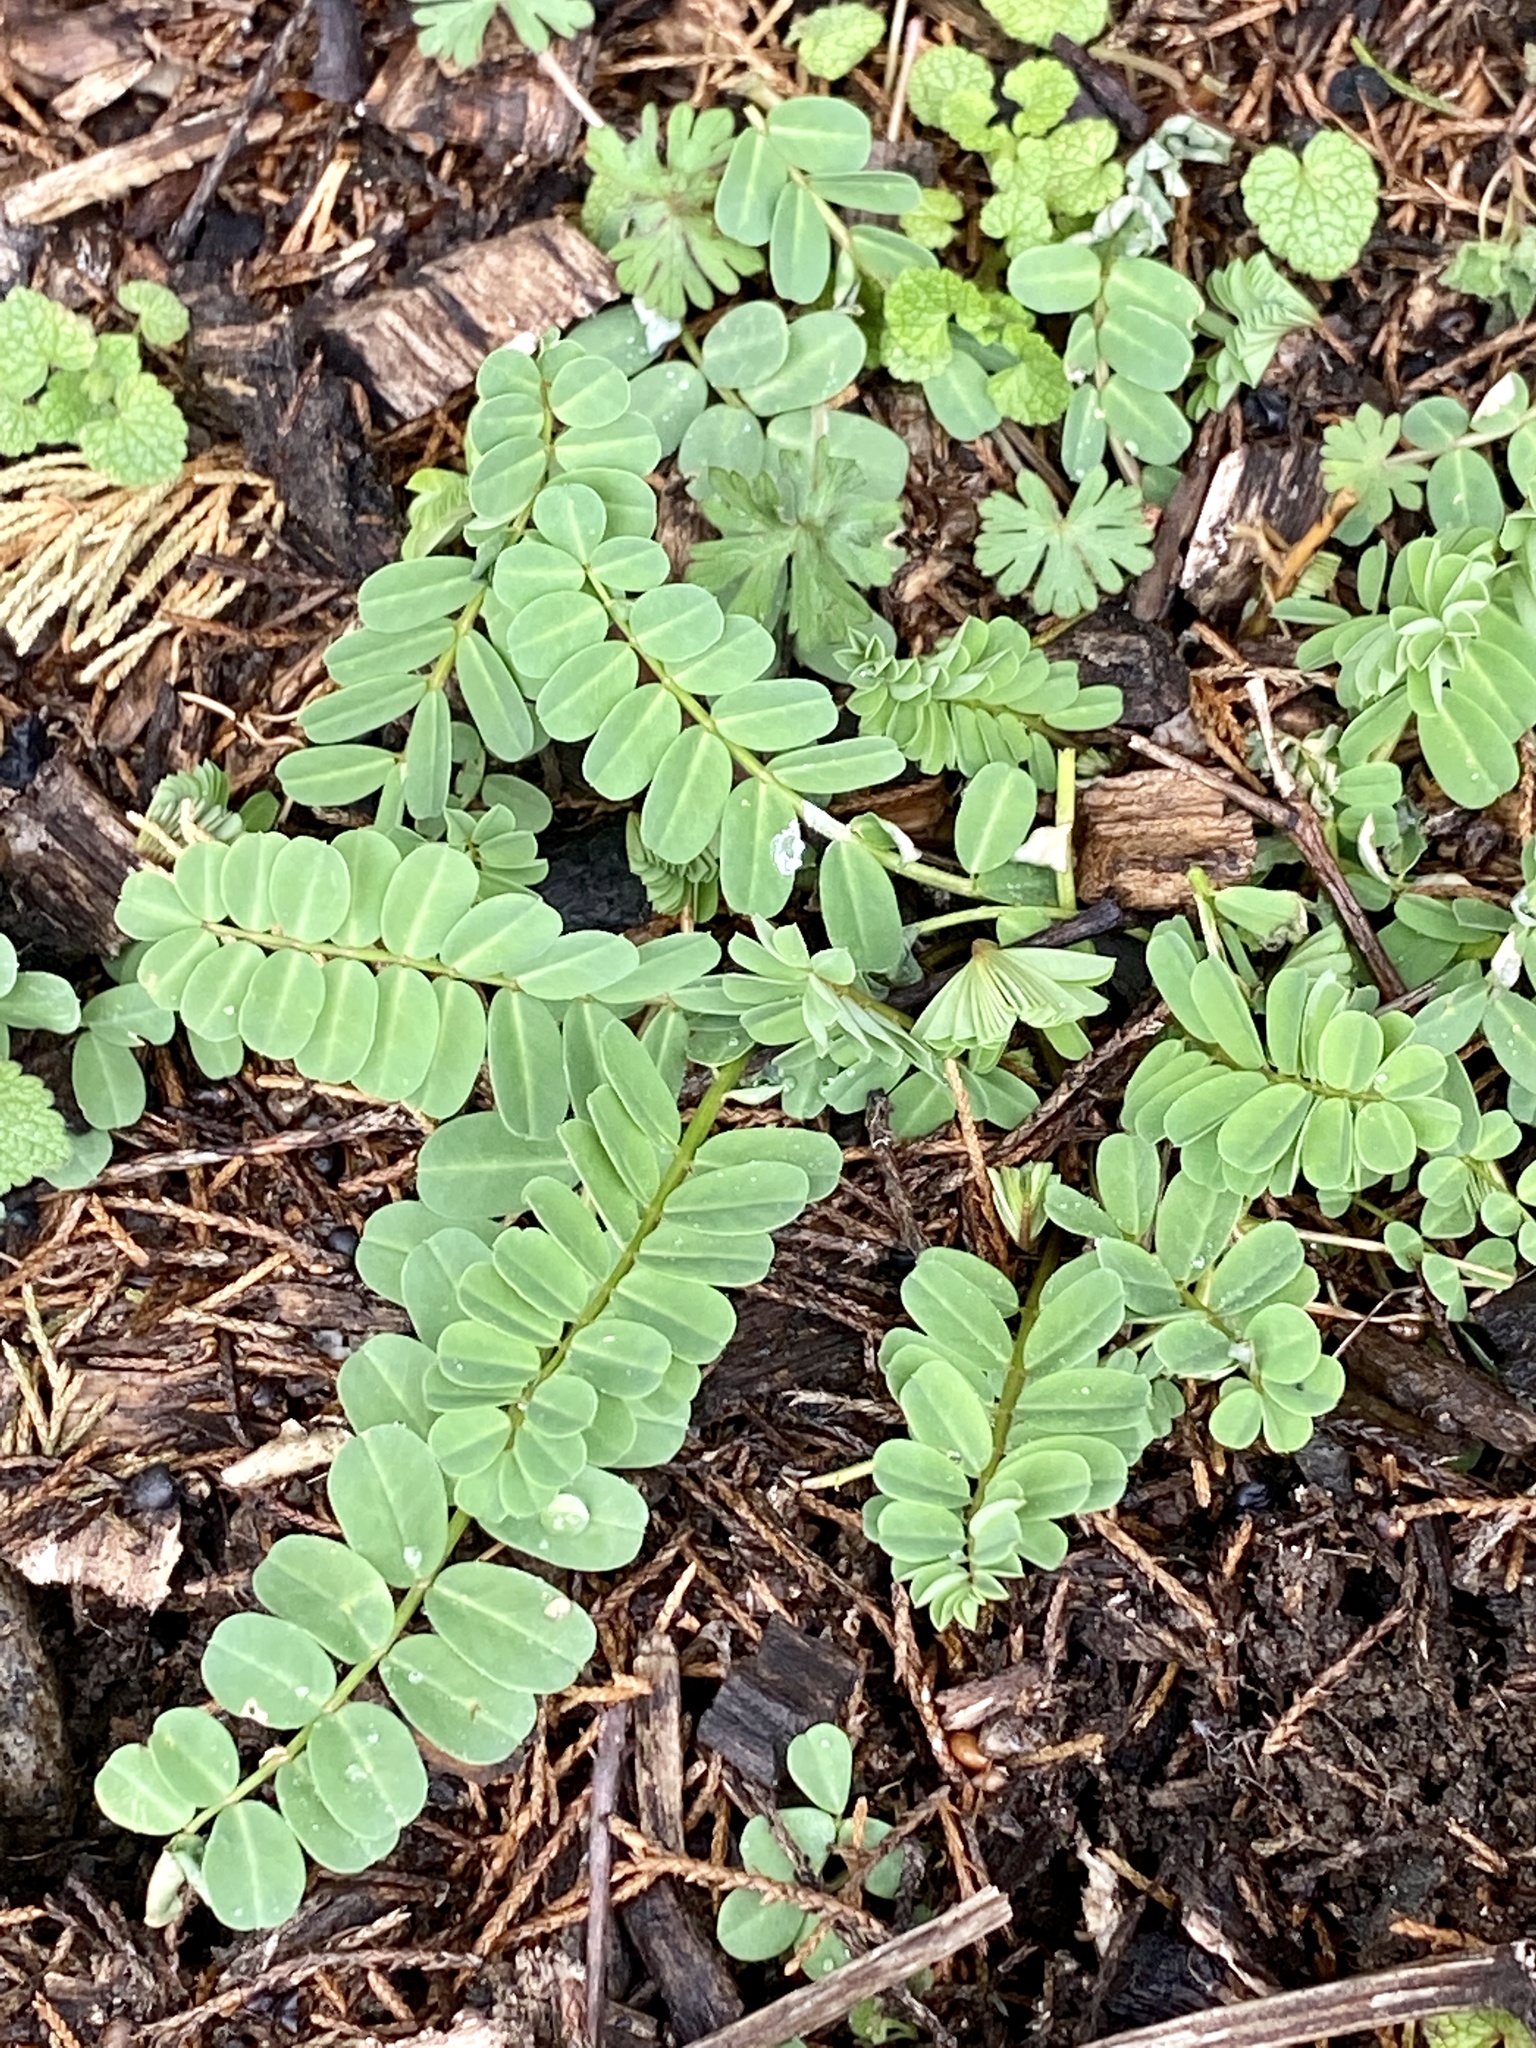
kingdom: Plantae
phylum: Tracheophyta
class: Magnoliopsida
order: Fabales
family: Fabaceae
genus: Coronilla
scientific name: Coronilla varia
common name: Crownvetch
